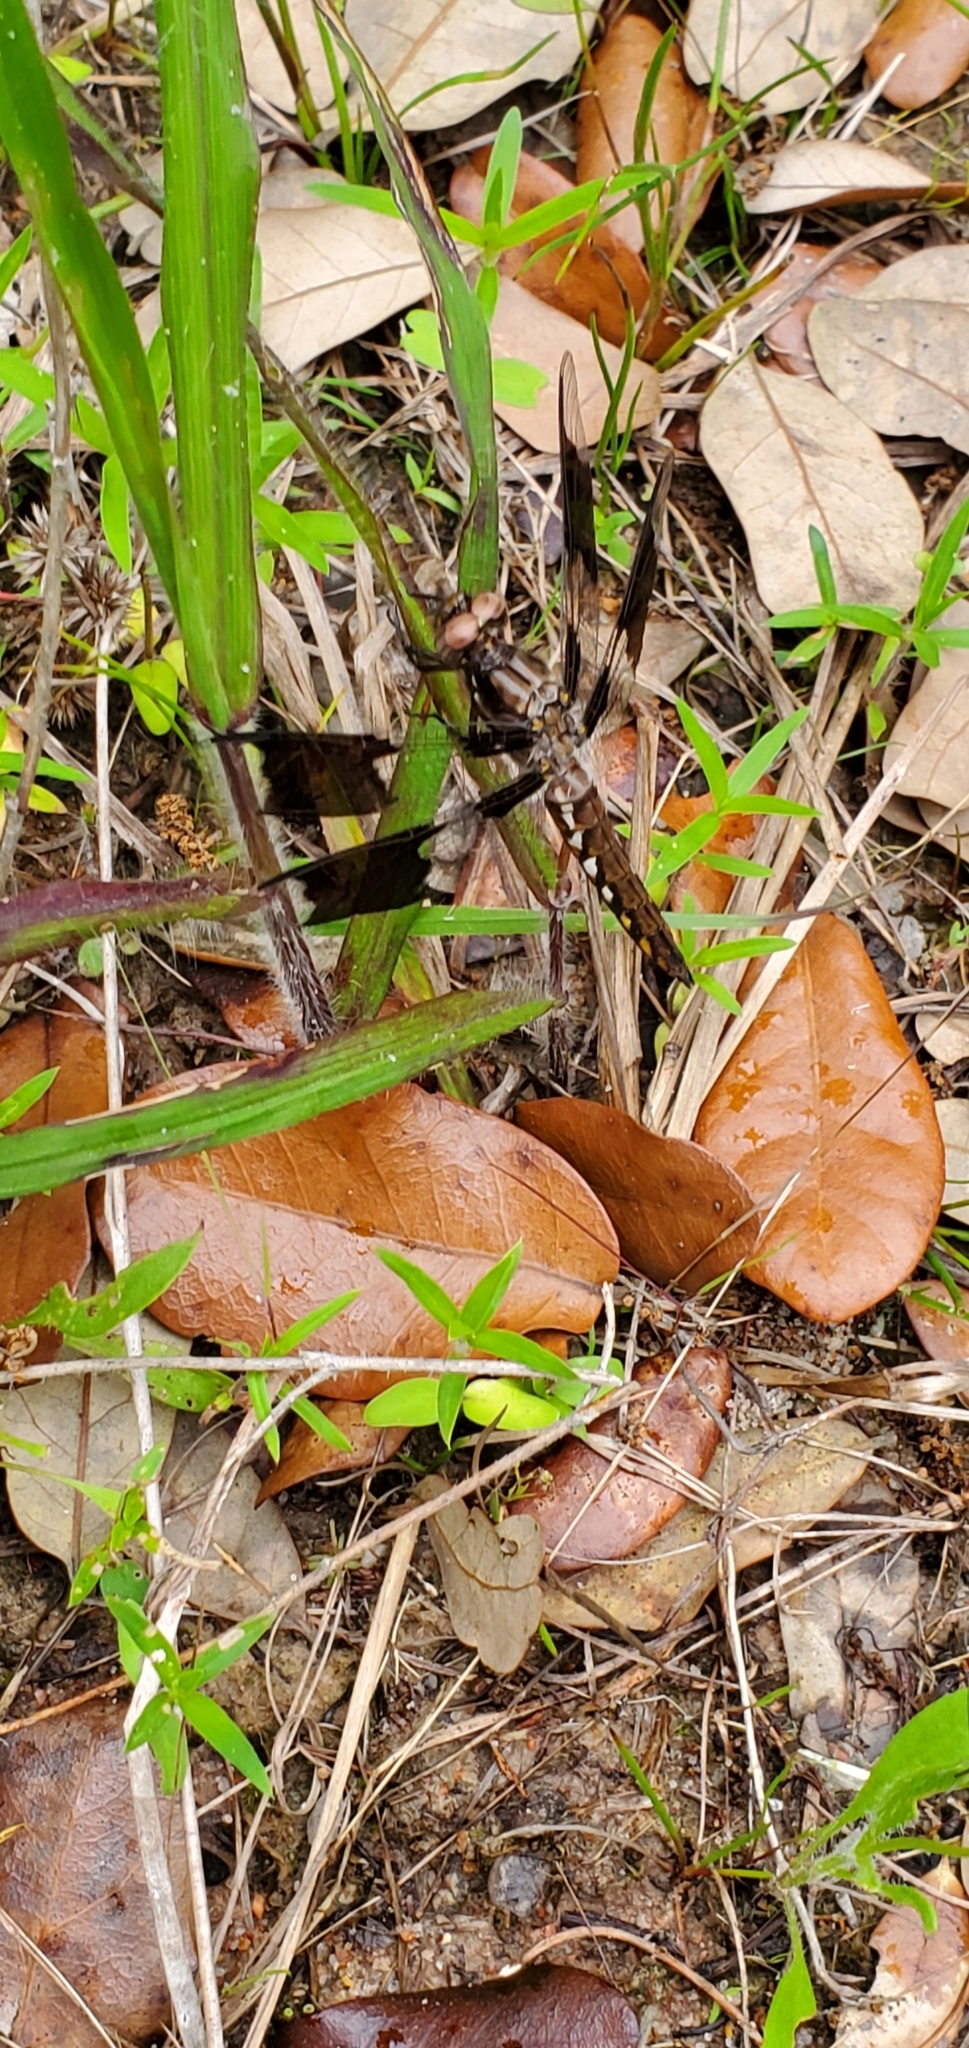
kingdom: Animalia
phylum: Arthropoda
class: Insecta
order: Odonata
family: Libellulidae
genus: Plathemis
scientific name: Plathemis lydia
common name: Common whitetail
